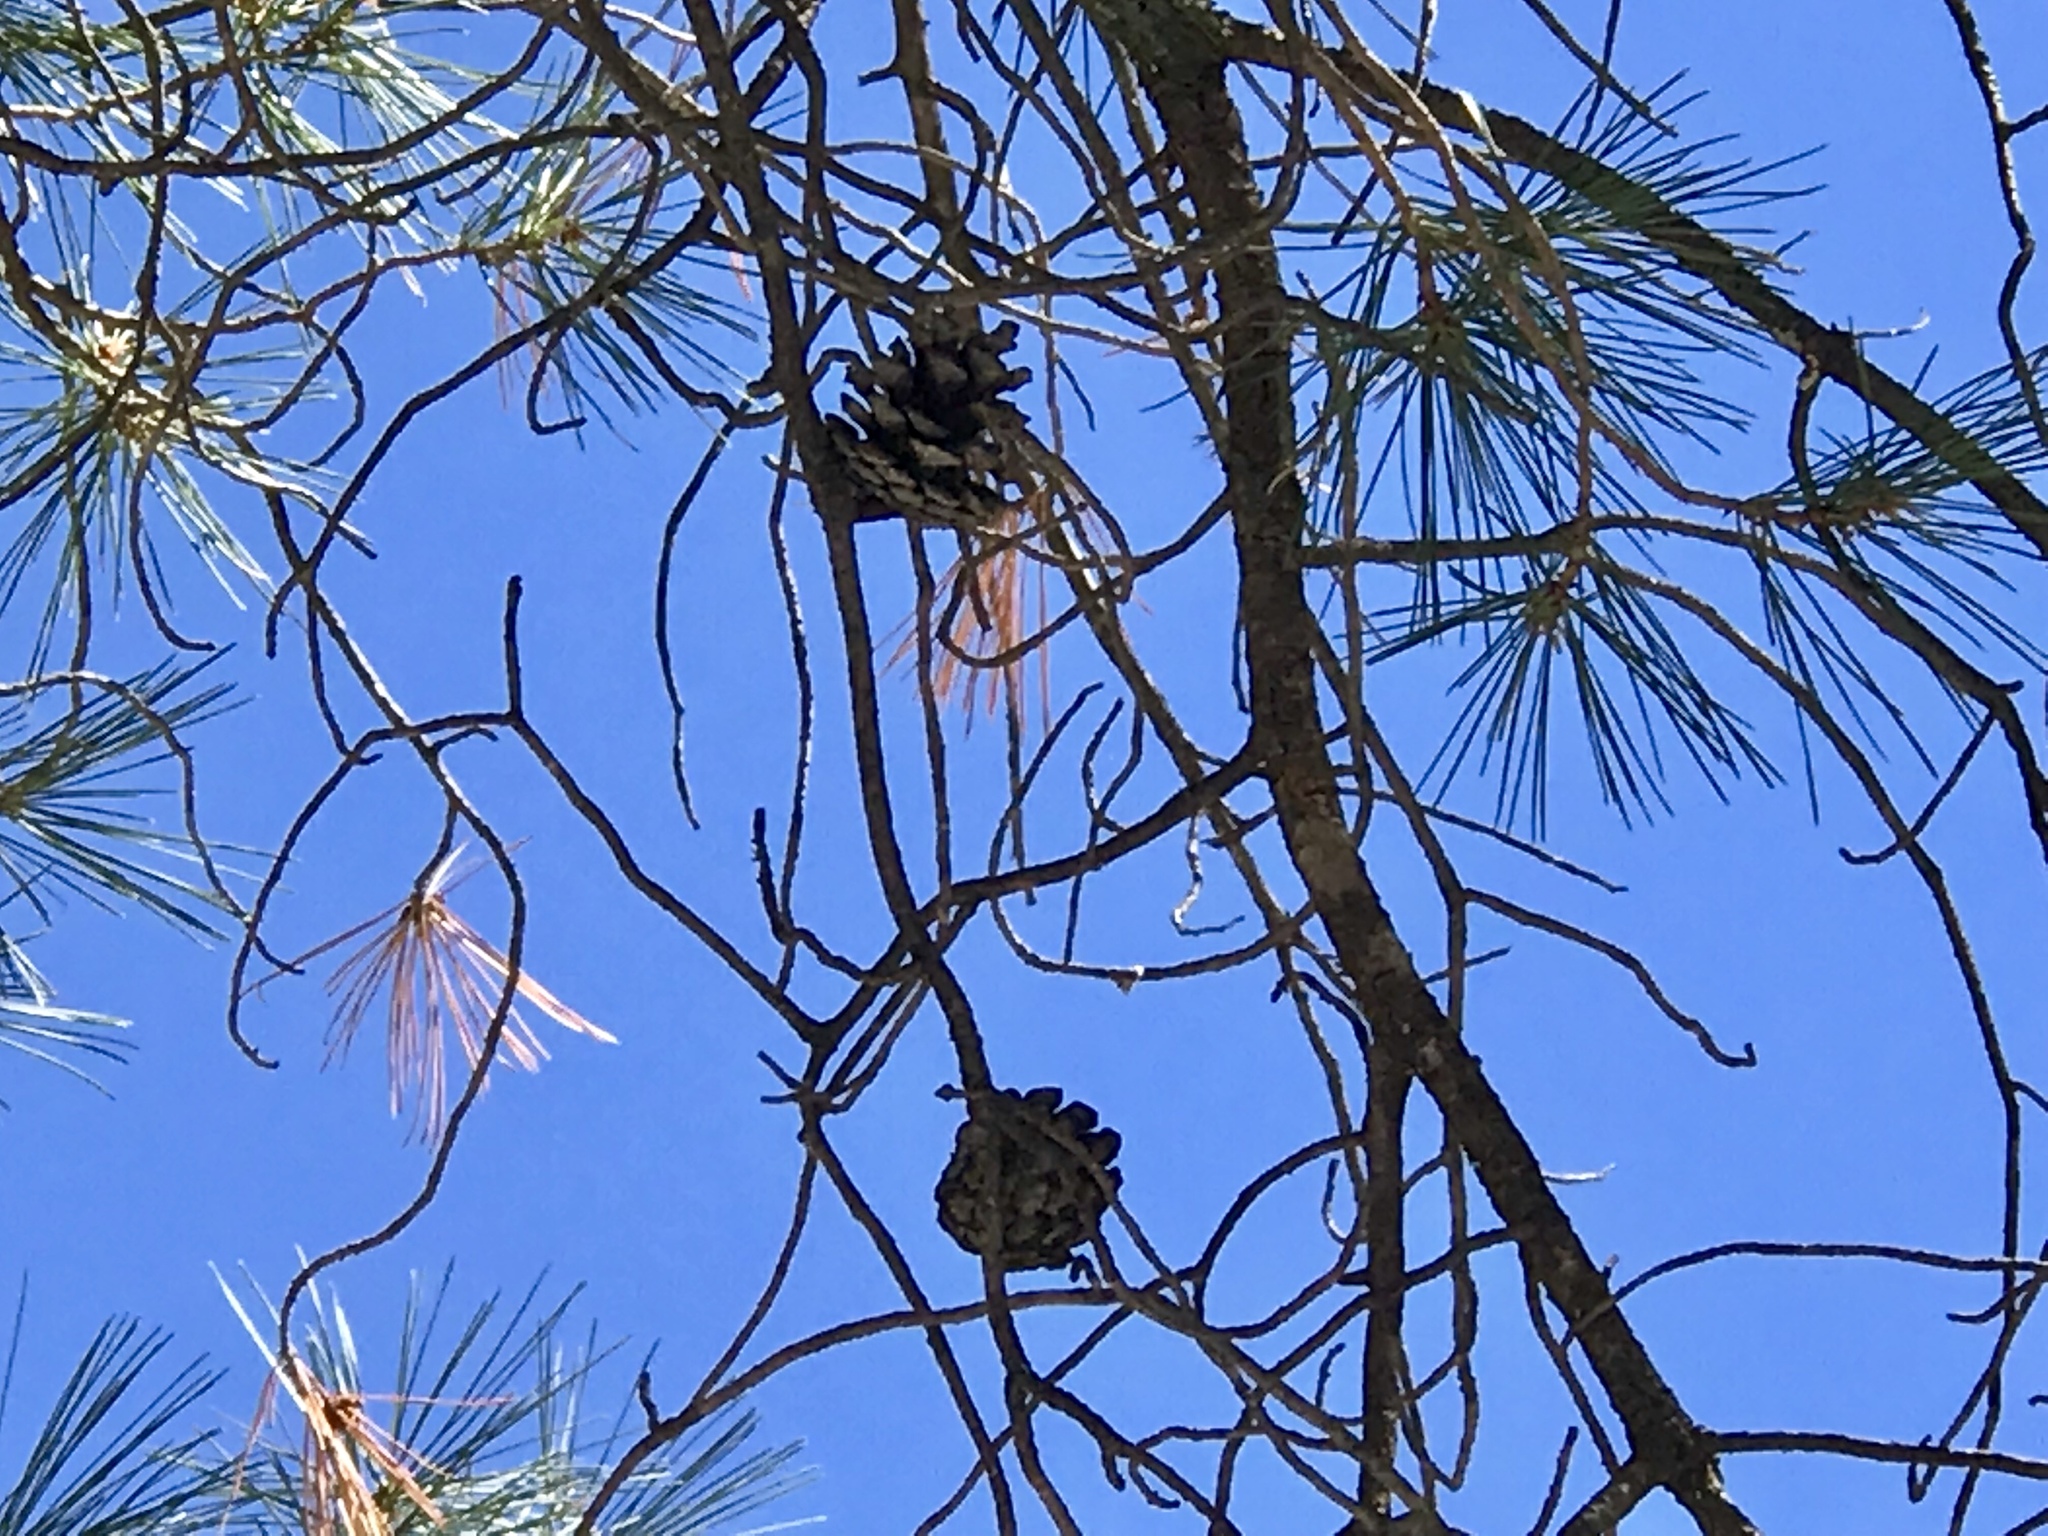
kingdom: Plantae
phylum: Tracheophyta
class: Pinopsida
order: Pinales
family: Pinaceae
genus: Pinus
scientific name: Pinus leiophylla
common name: Chihuahua pine
